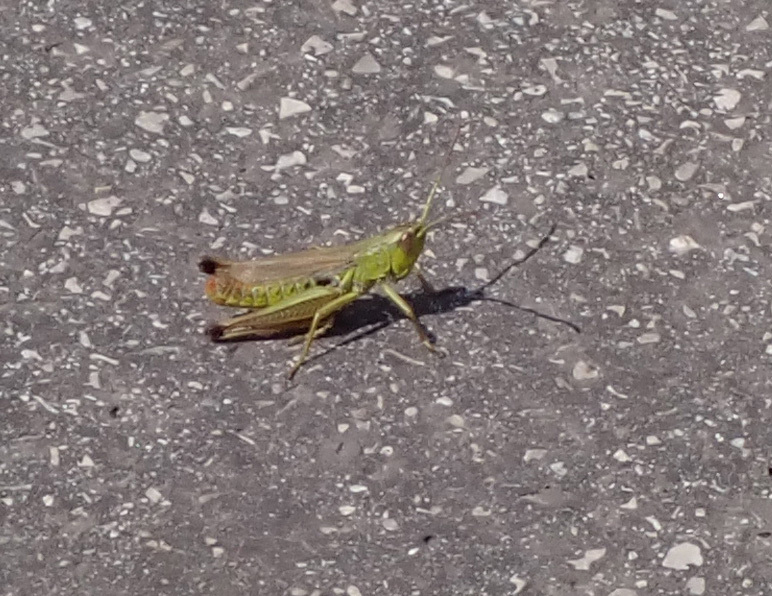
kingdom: Animalia
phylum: Arthropoda
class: Insecta
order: Orthoptera
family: Acrididae
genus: Pseudochorthippus
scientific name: Pseudochorthippus parallelus
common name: Meadow grasshopper
